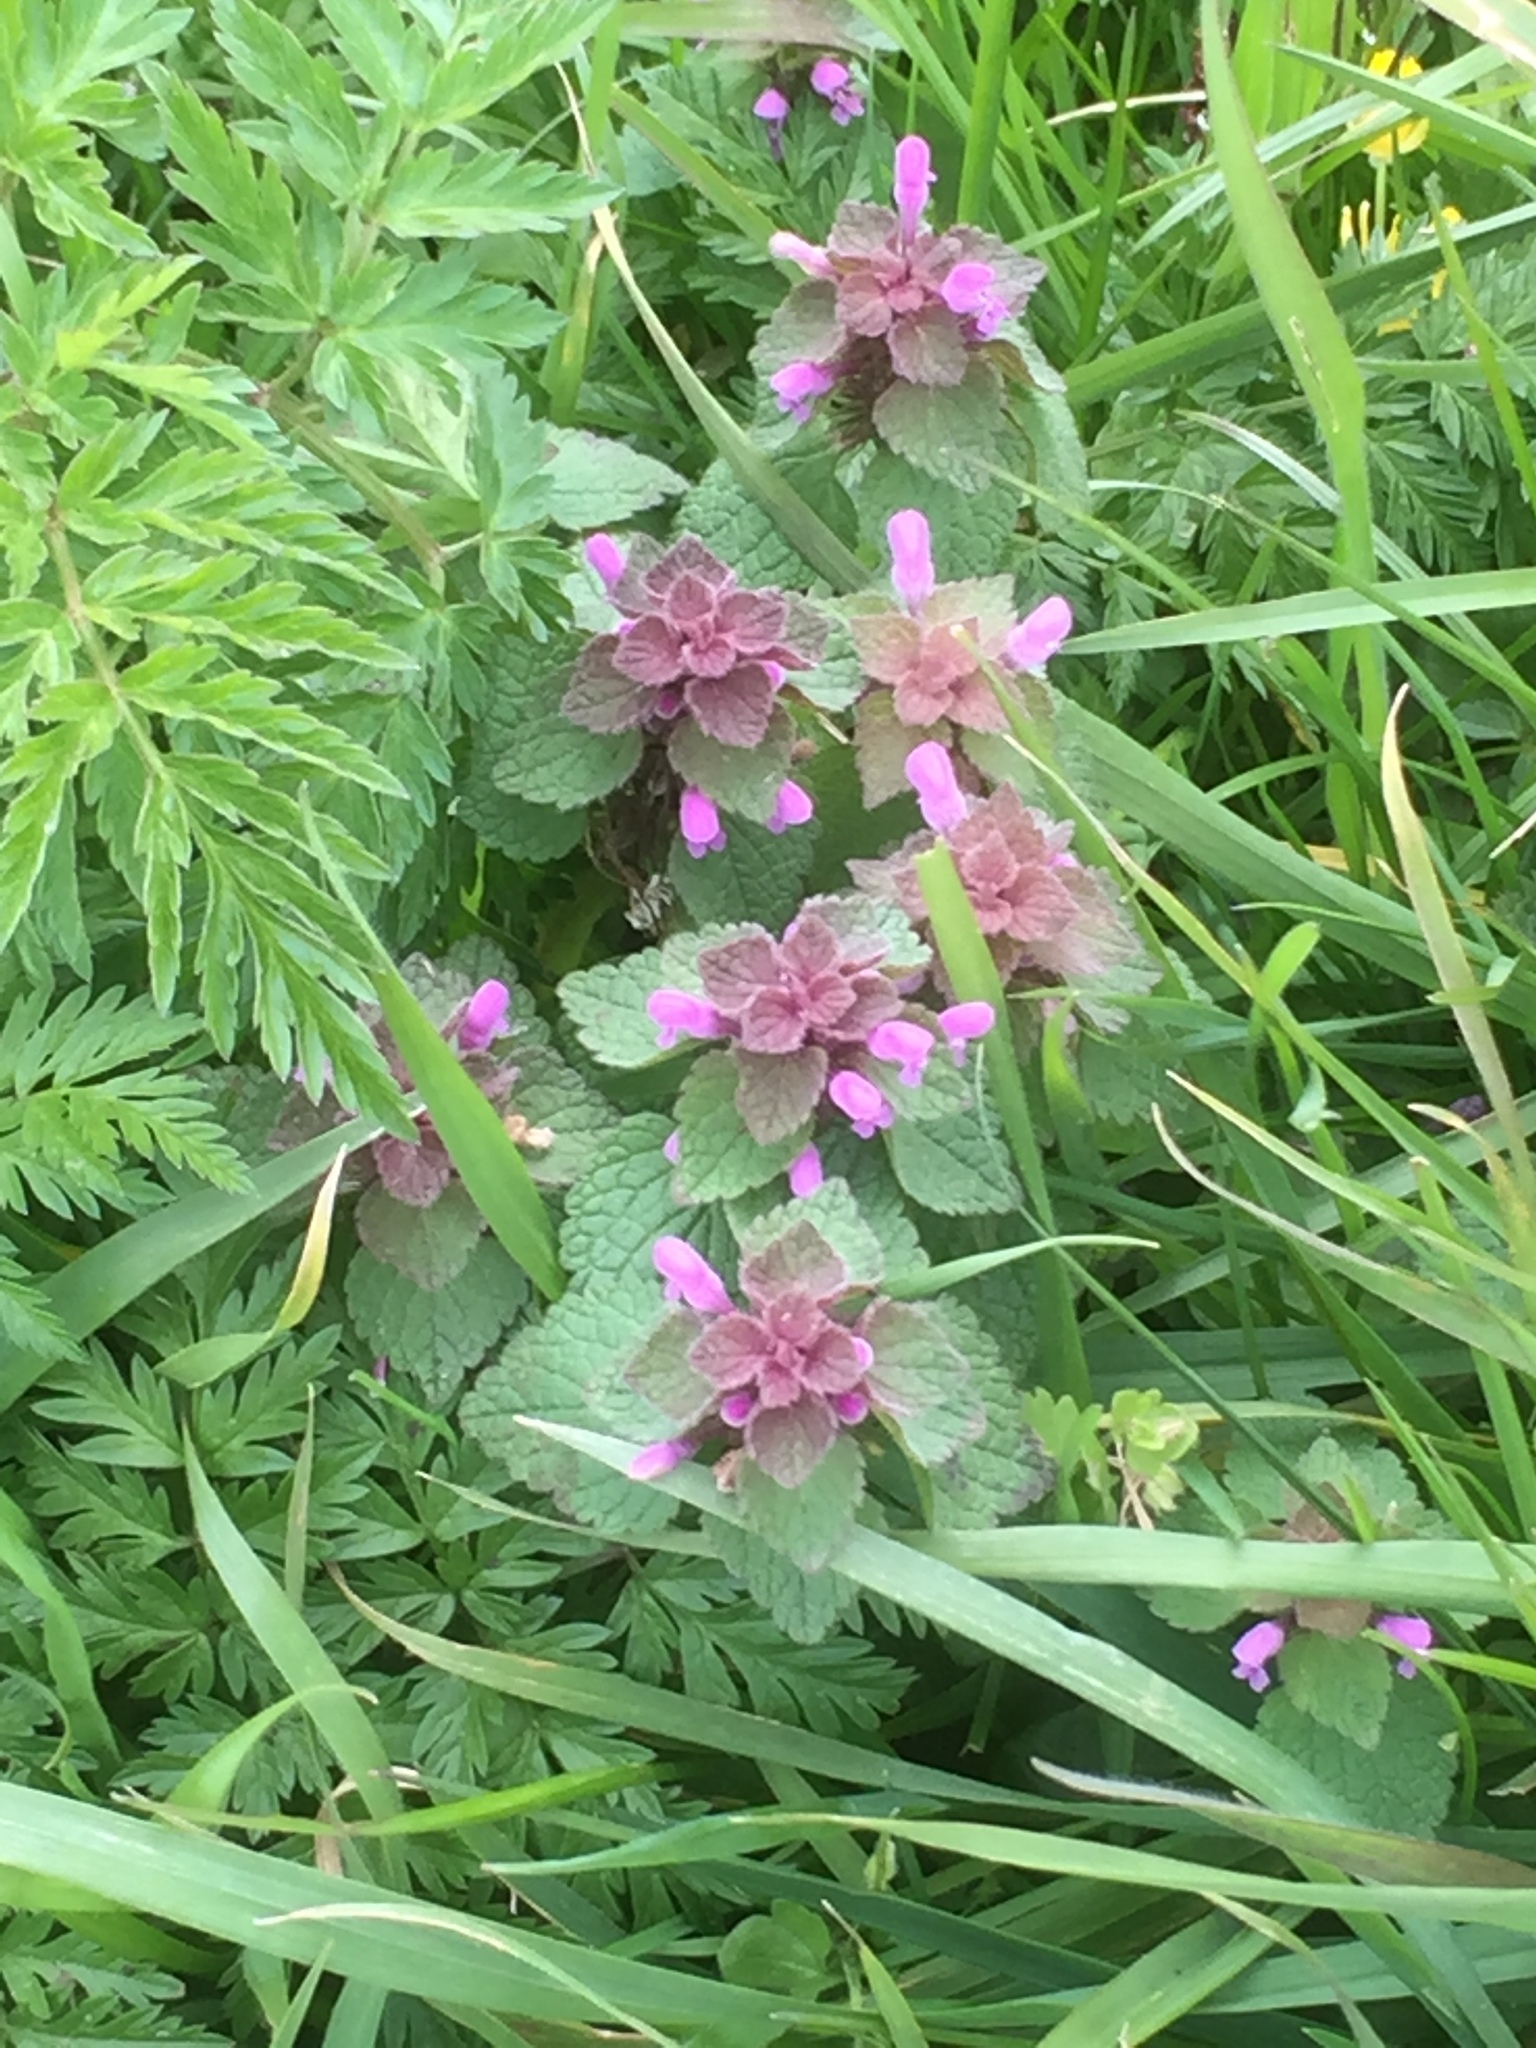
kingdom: Plantae
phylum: Tracheophyta
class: Magnoliopsida
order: Lamiales
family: Lamiaceae
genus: Lamium
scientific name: Lamium purpureum
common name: Red dead-nettle
